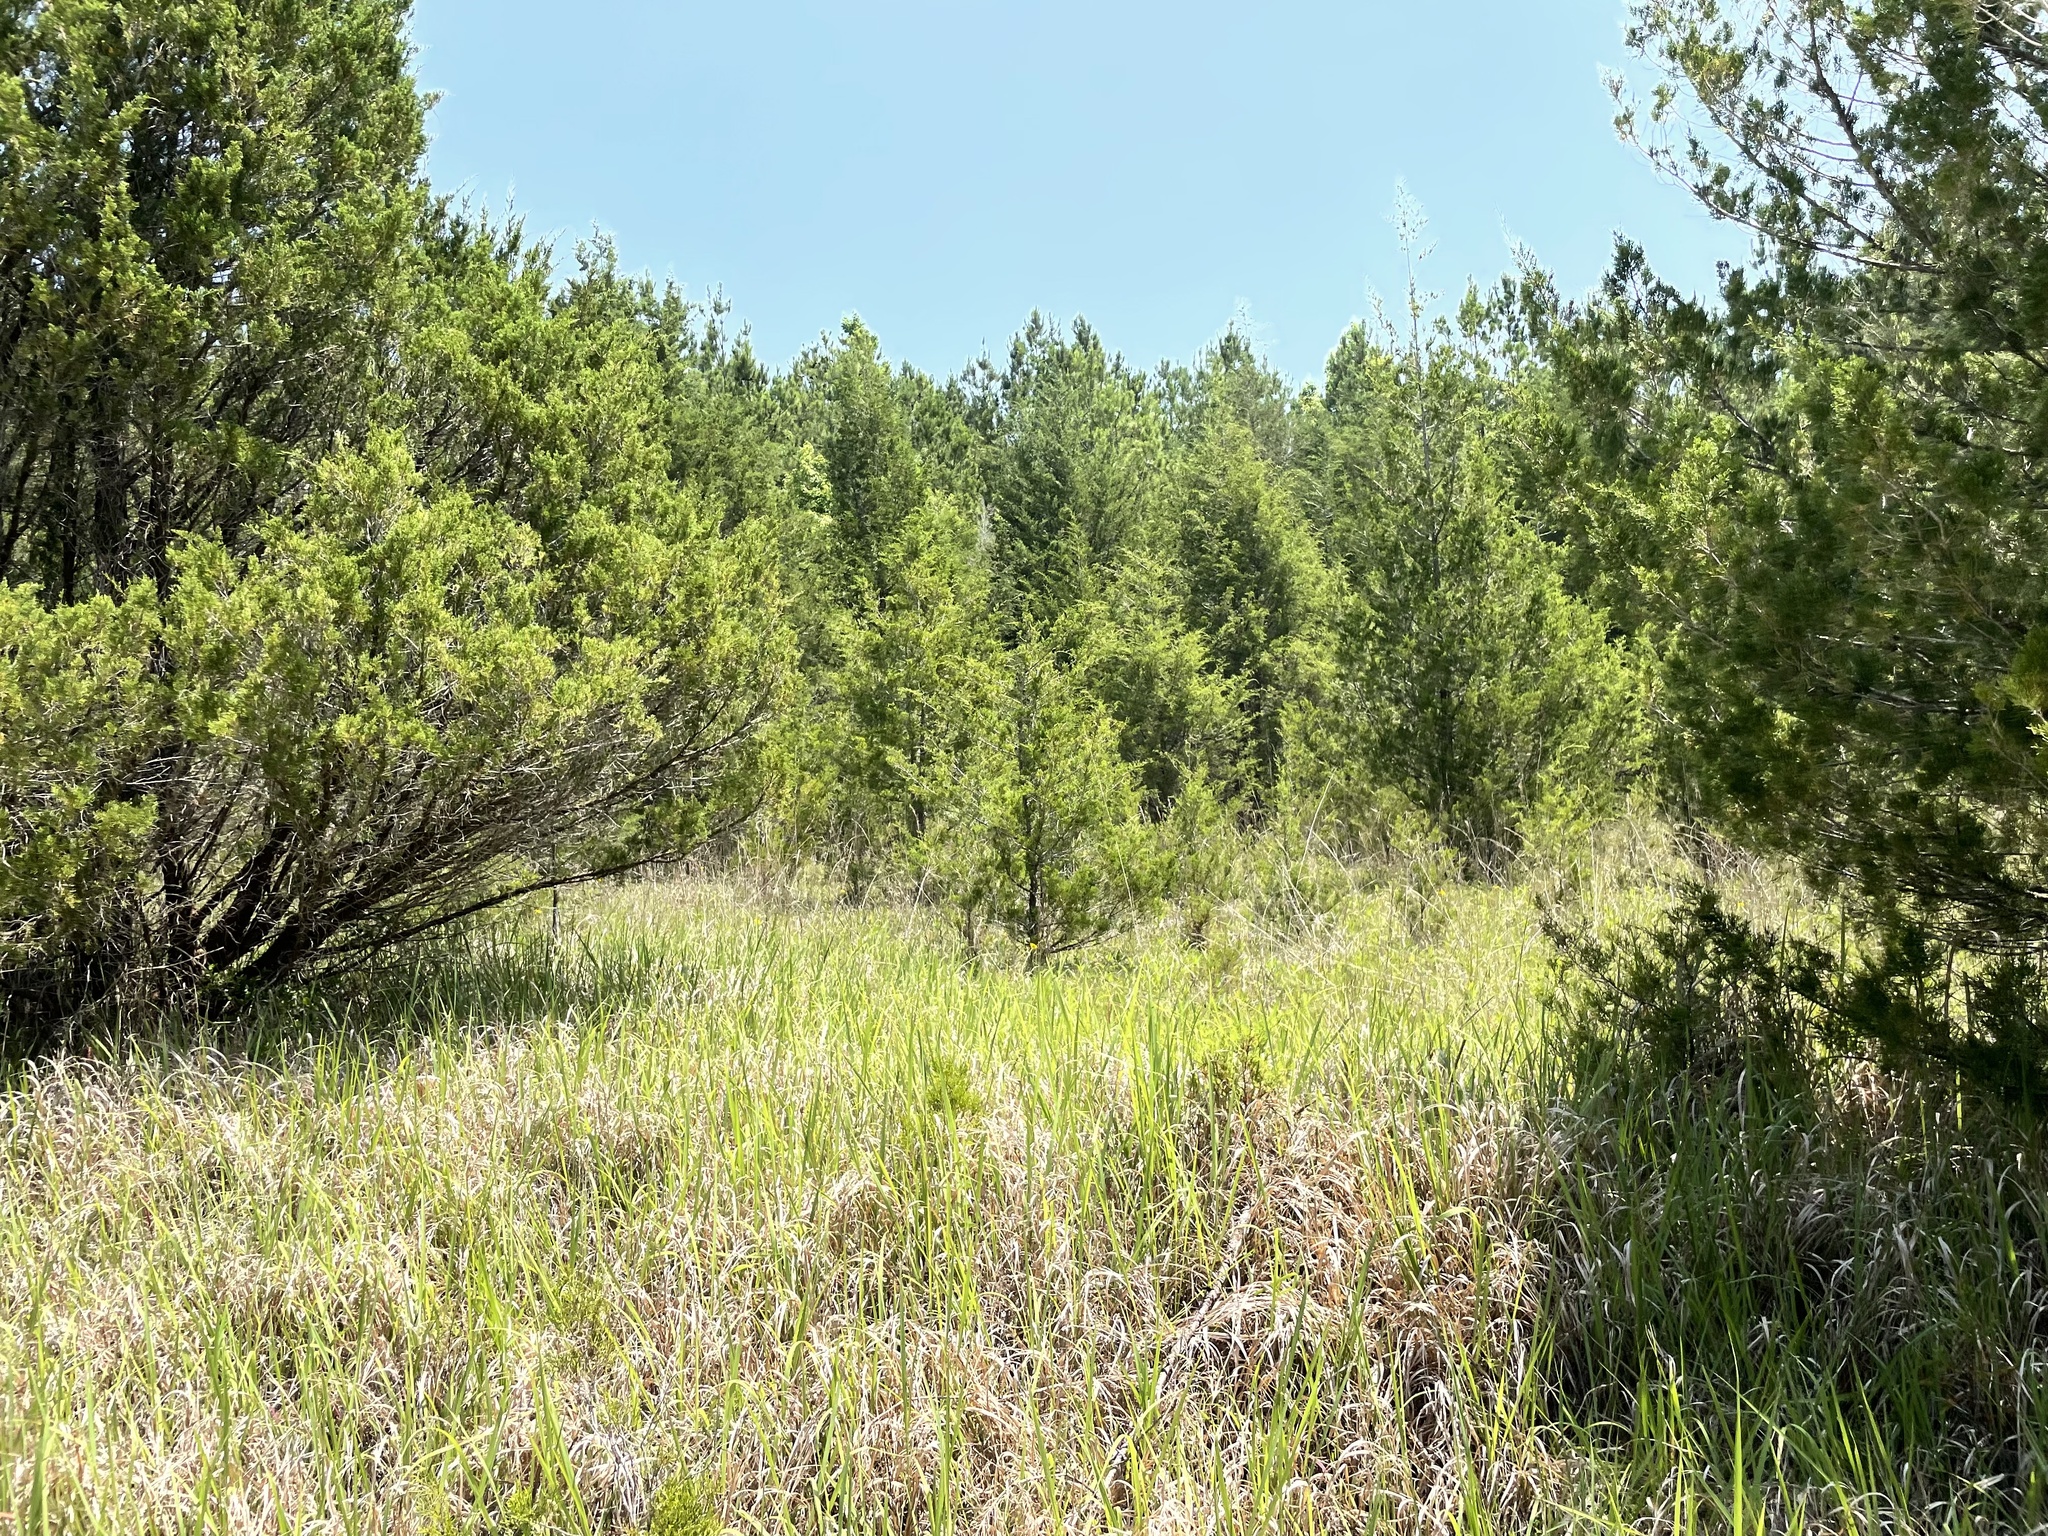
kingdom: Plantae
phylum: Tracheophyta
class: Liliopsida
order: Poales
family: Poaceae
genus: Imperata
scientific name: Imperata cylindrica
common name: Cogongrass
